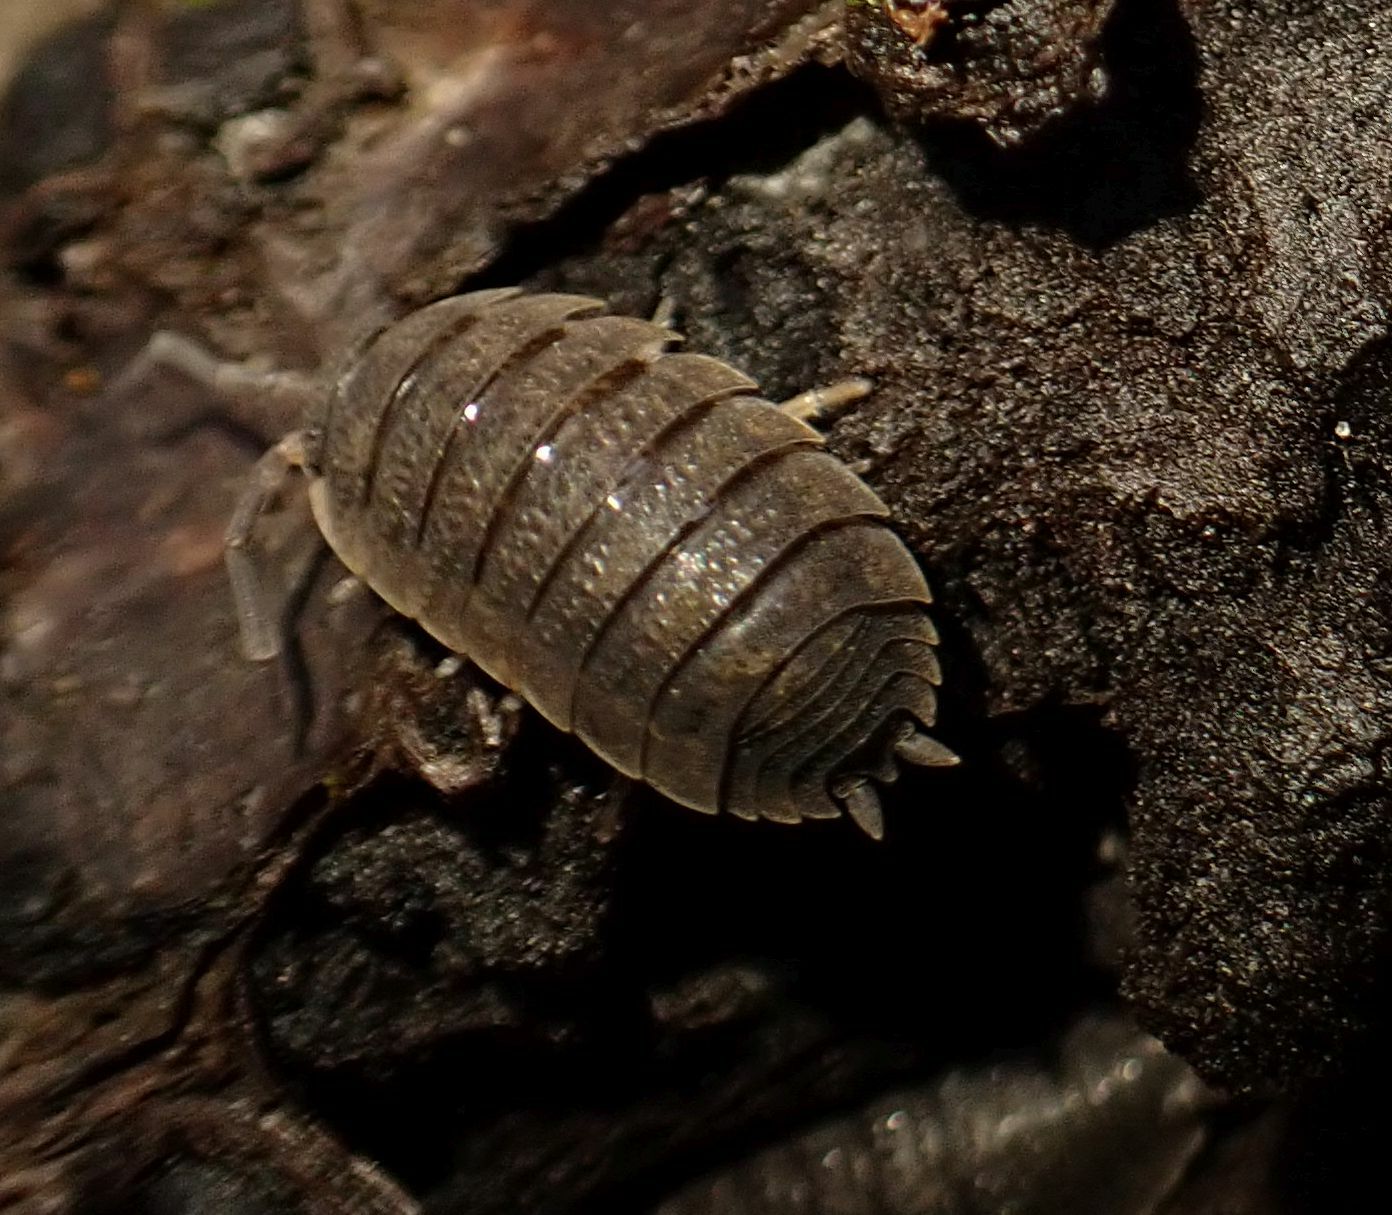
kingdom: Animalia
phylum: Arthropoda
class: Malacostraca
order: Isopoda
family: Porcellionidae
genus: Porcellio
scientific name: Porcellio scaber
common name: Common rough woodlouse
